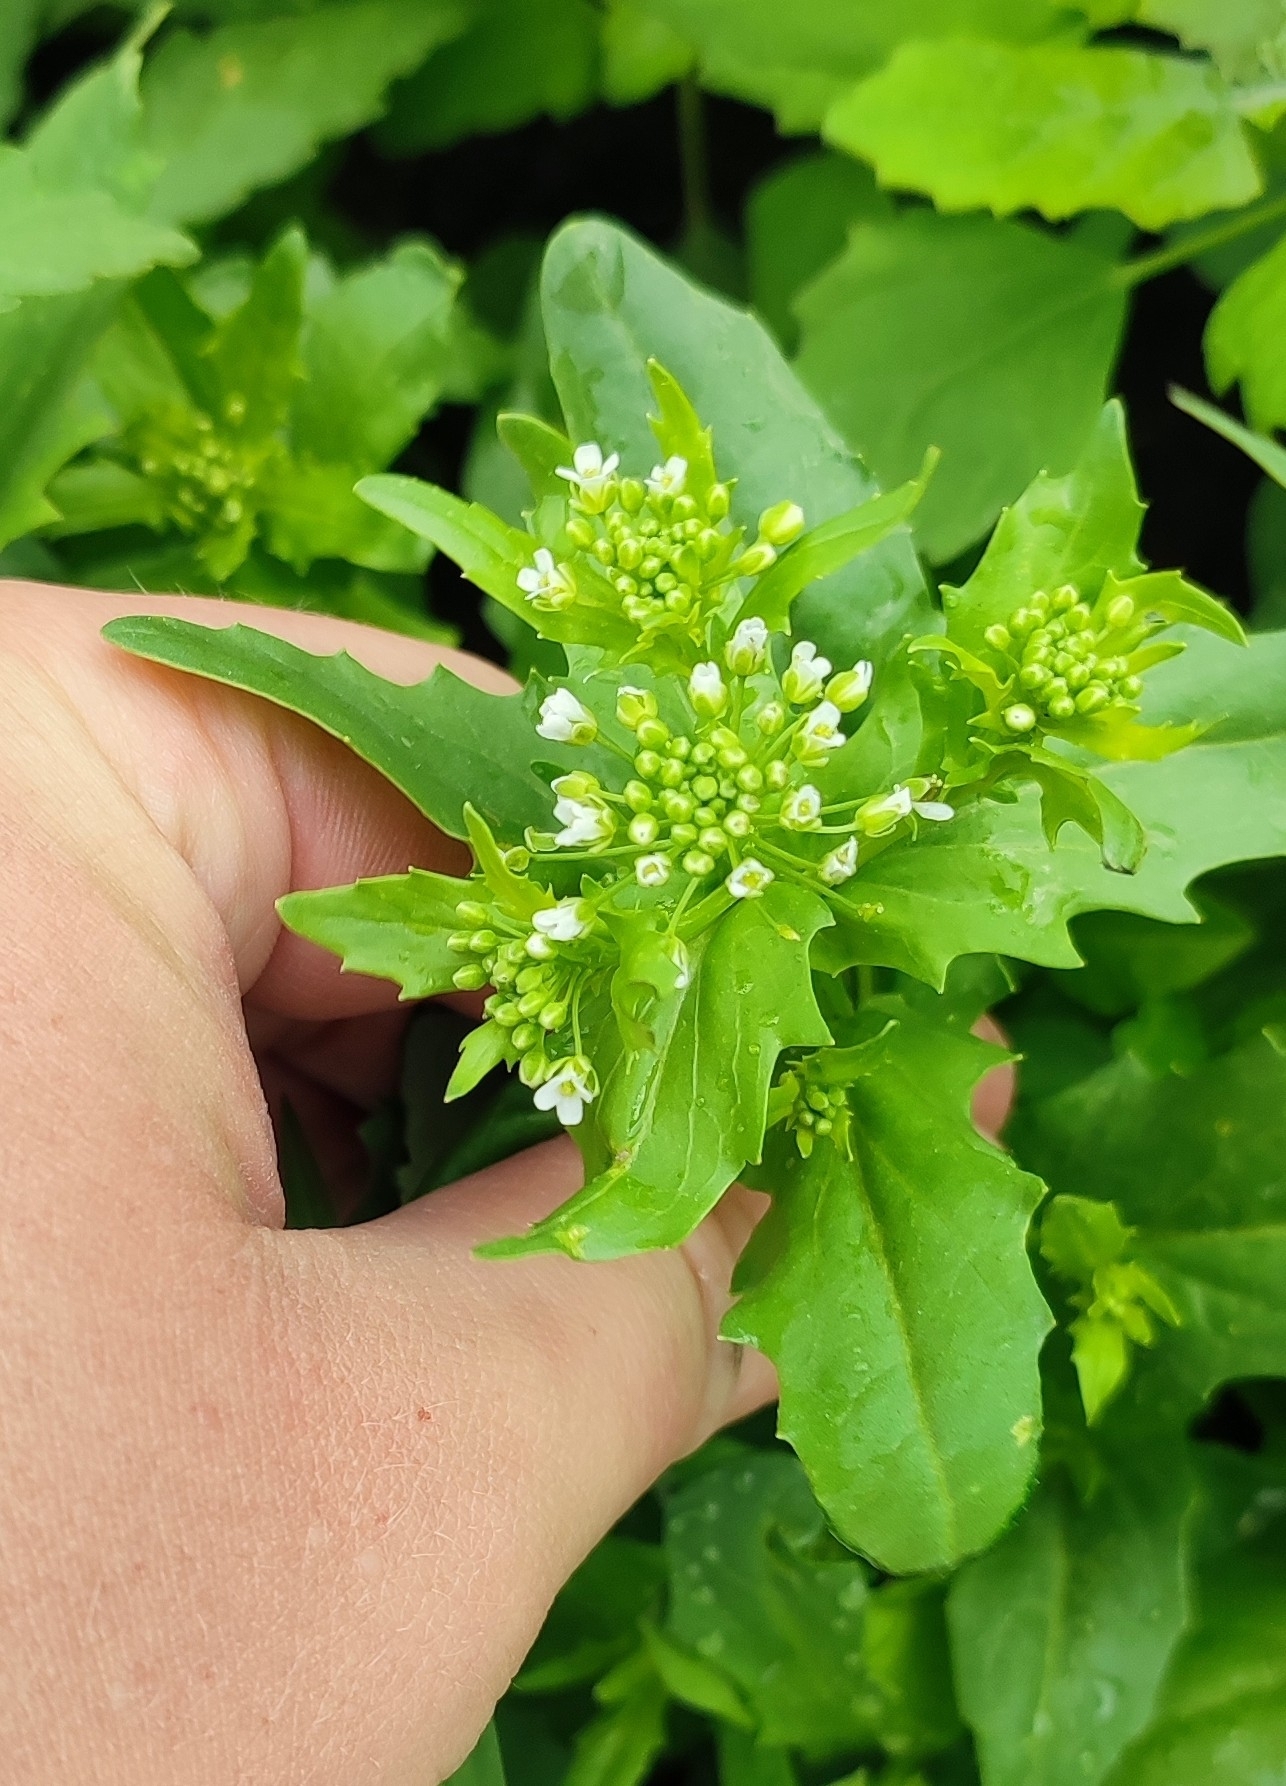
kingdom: Plantae
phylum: Tracheophyta
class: Magnoliopsida
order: Brassicales
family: Brassicaceae
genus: Thlaspi
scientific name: Thlaspi arvense
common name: Field pennycress
